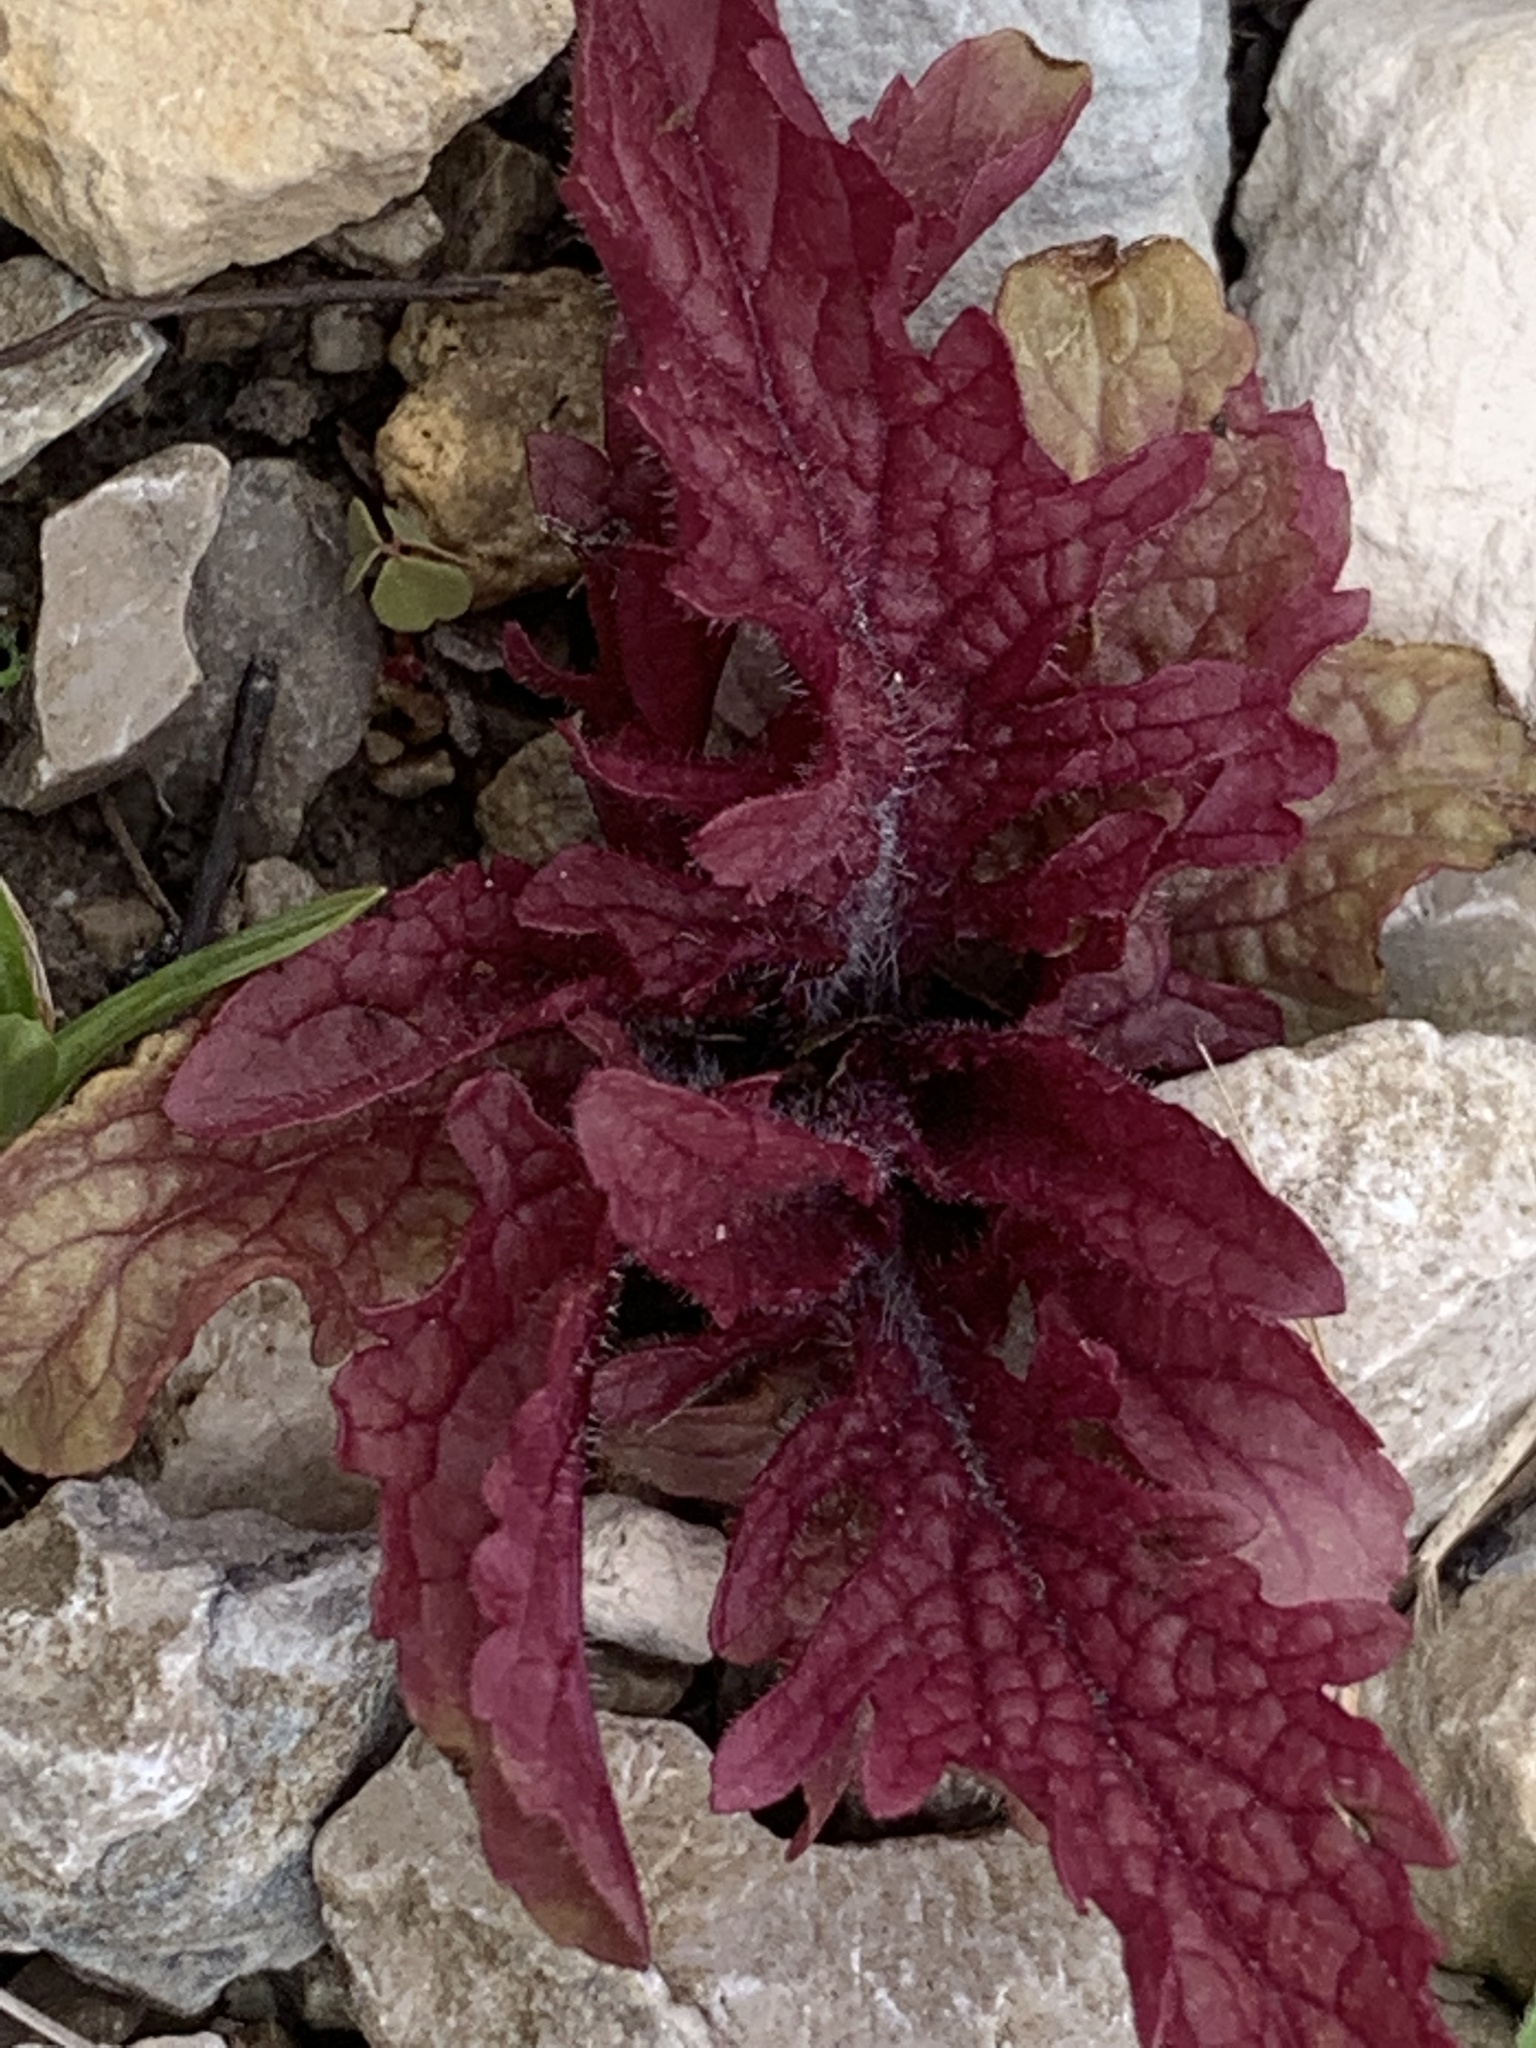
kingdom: Plantae
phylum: Tracheophyta
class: Magnoliopsida
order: Lamiales
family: Orobanchaceae
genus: Dasistoma
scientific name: Dasistoma macrophyllum
